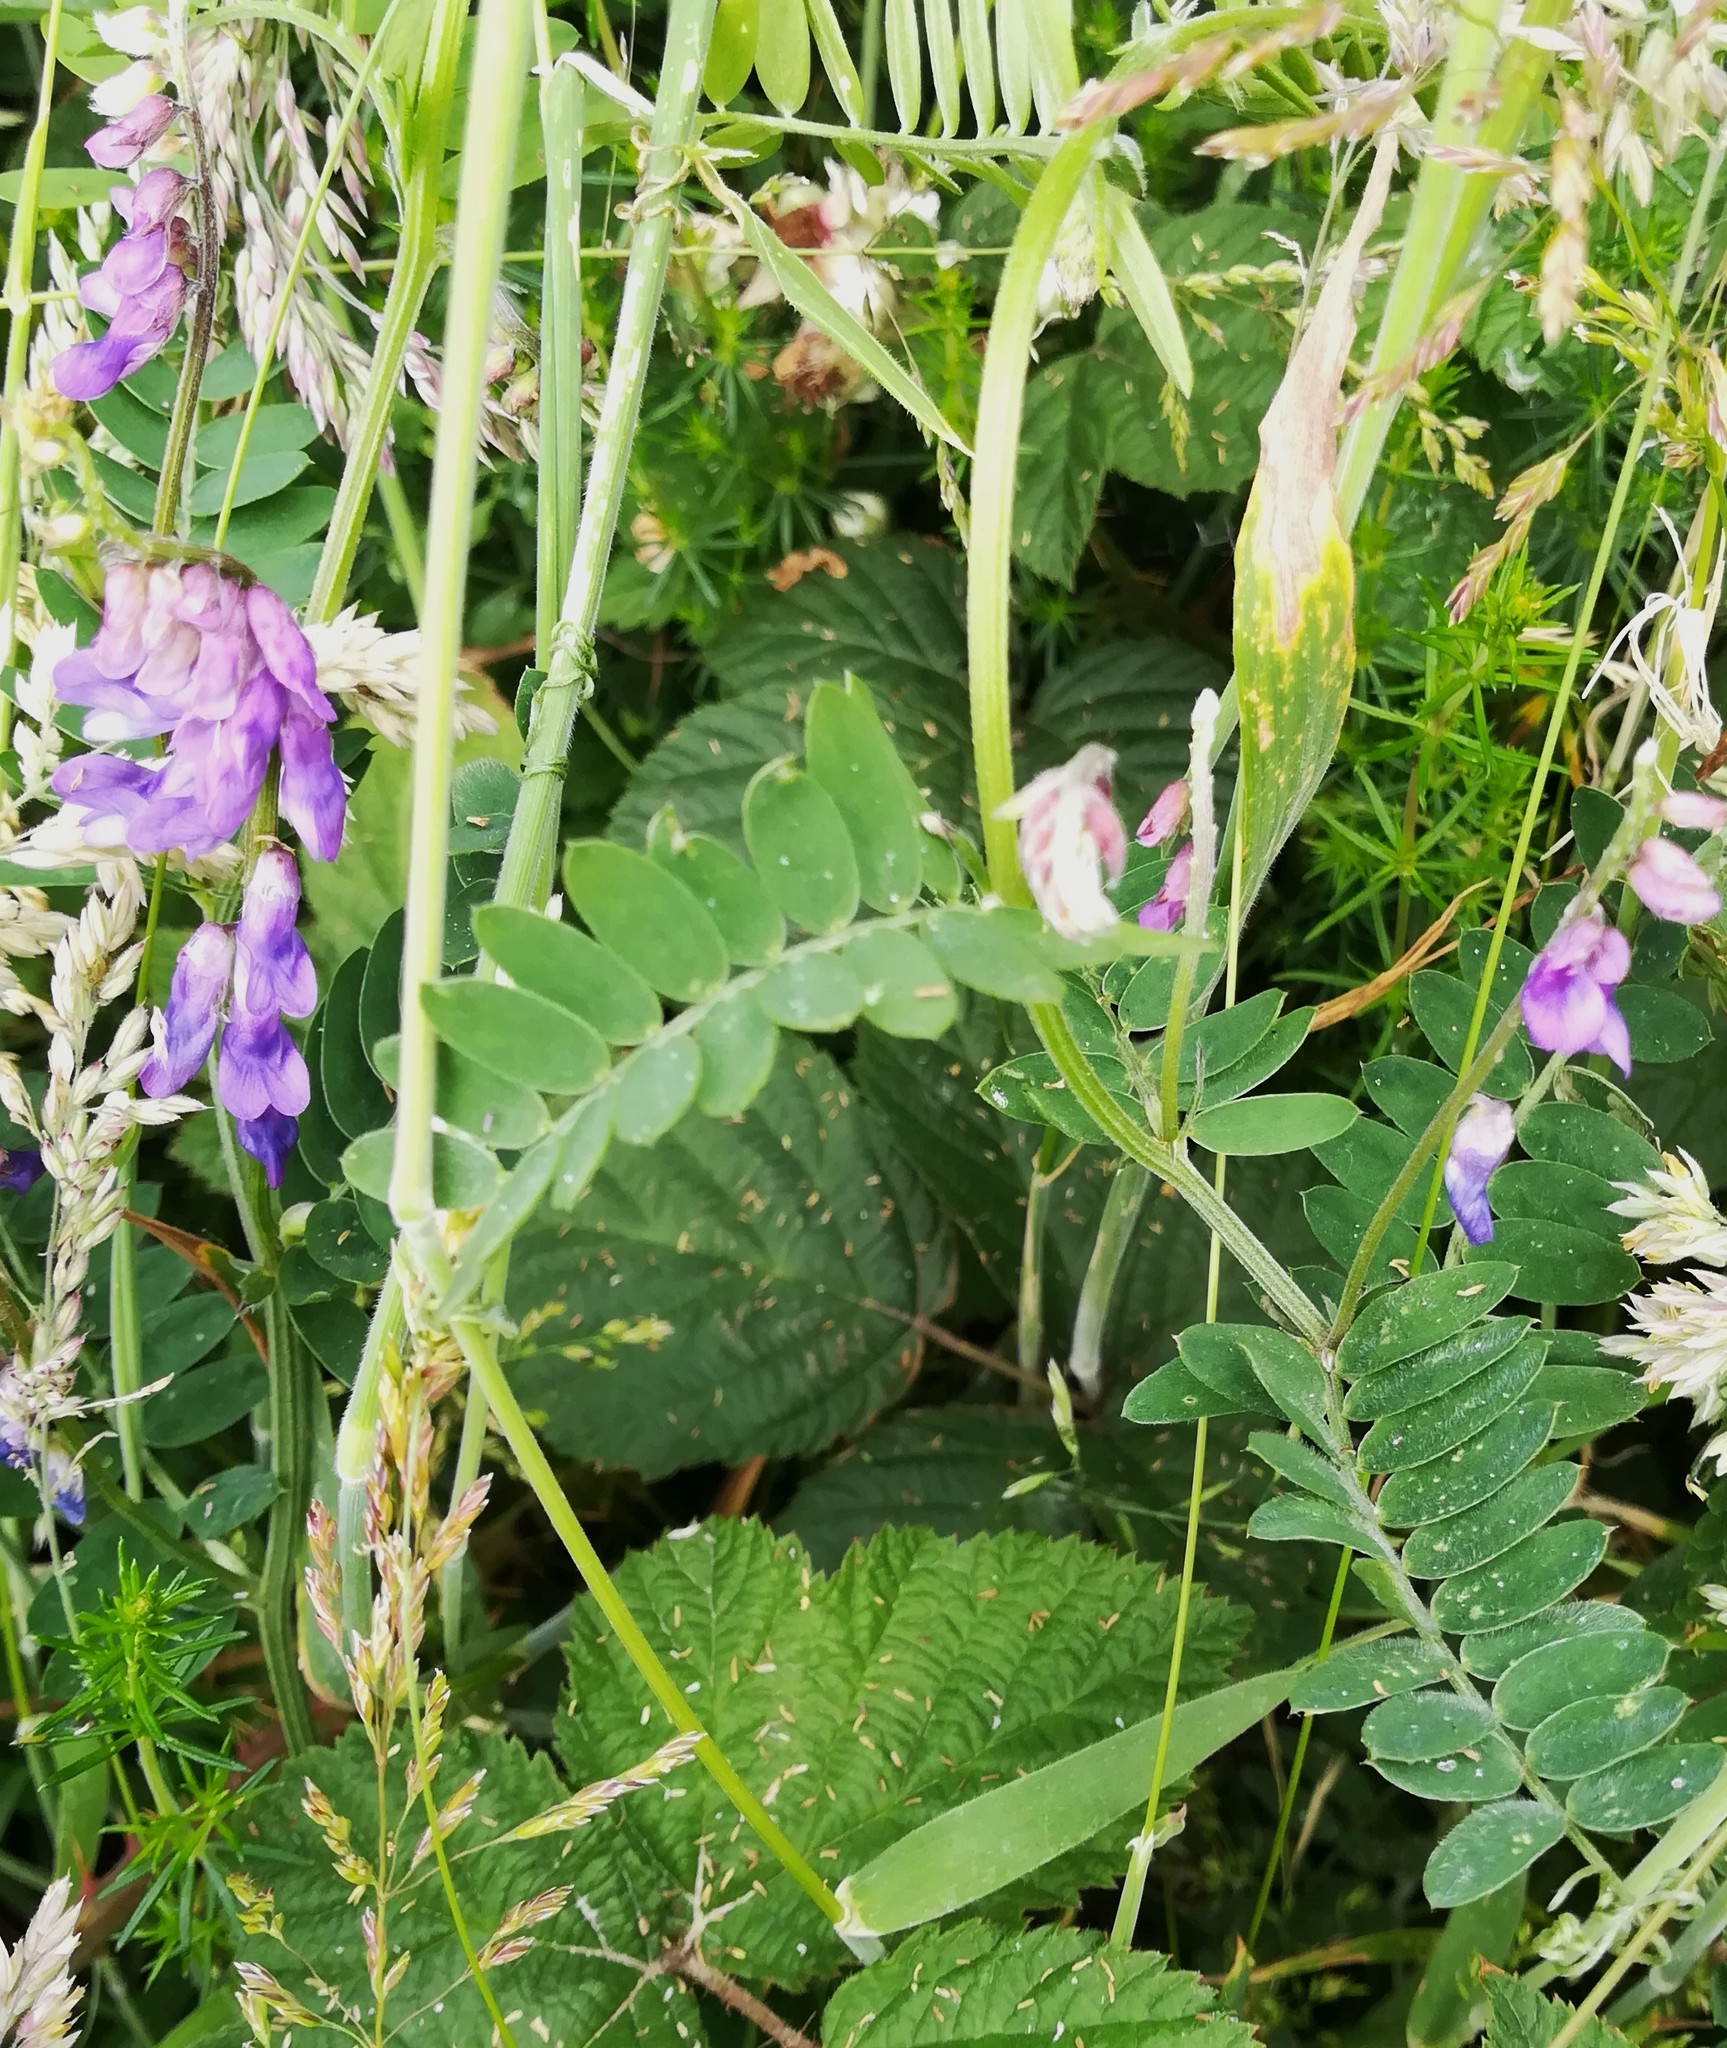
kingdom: Plantae
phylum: Tracheophyta
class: Magnoliopsida
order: Fabales
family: Fabaceae
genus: Vicia
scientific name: Vicia cracca
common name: Bird vetch
